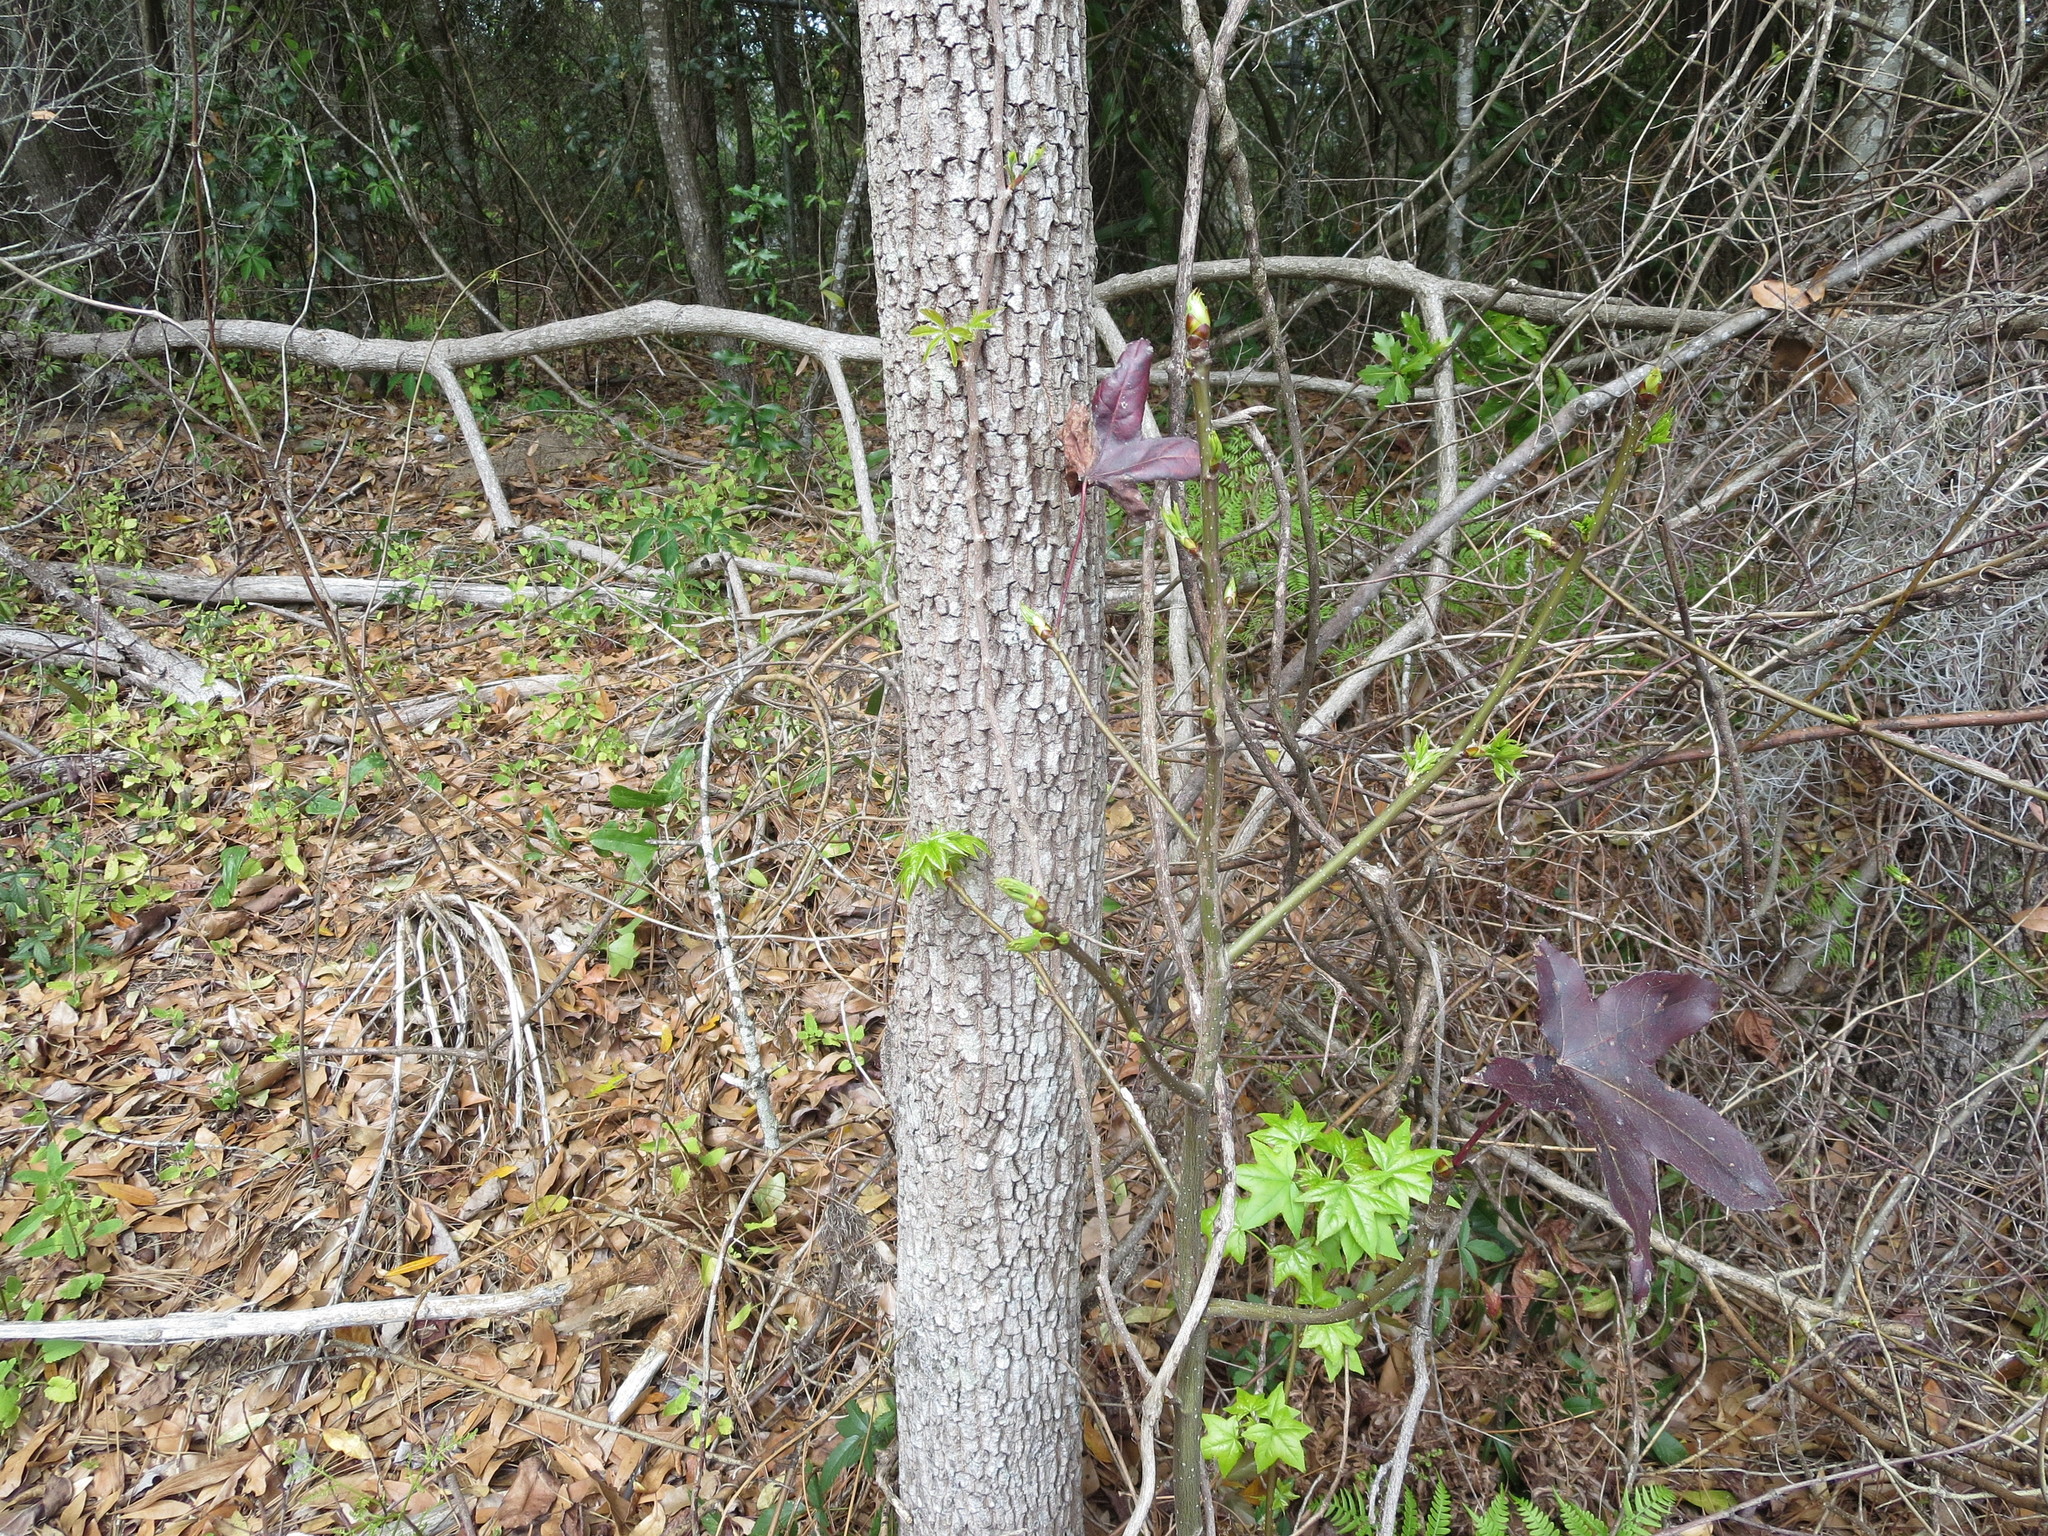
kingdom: Plantae
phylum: Tracheophyta
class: Magnoliopsida
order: Saxifragales
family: Altingiaceae
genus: Liquidambar
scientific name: Liquidambar styraciflua
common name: Sweet gum
